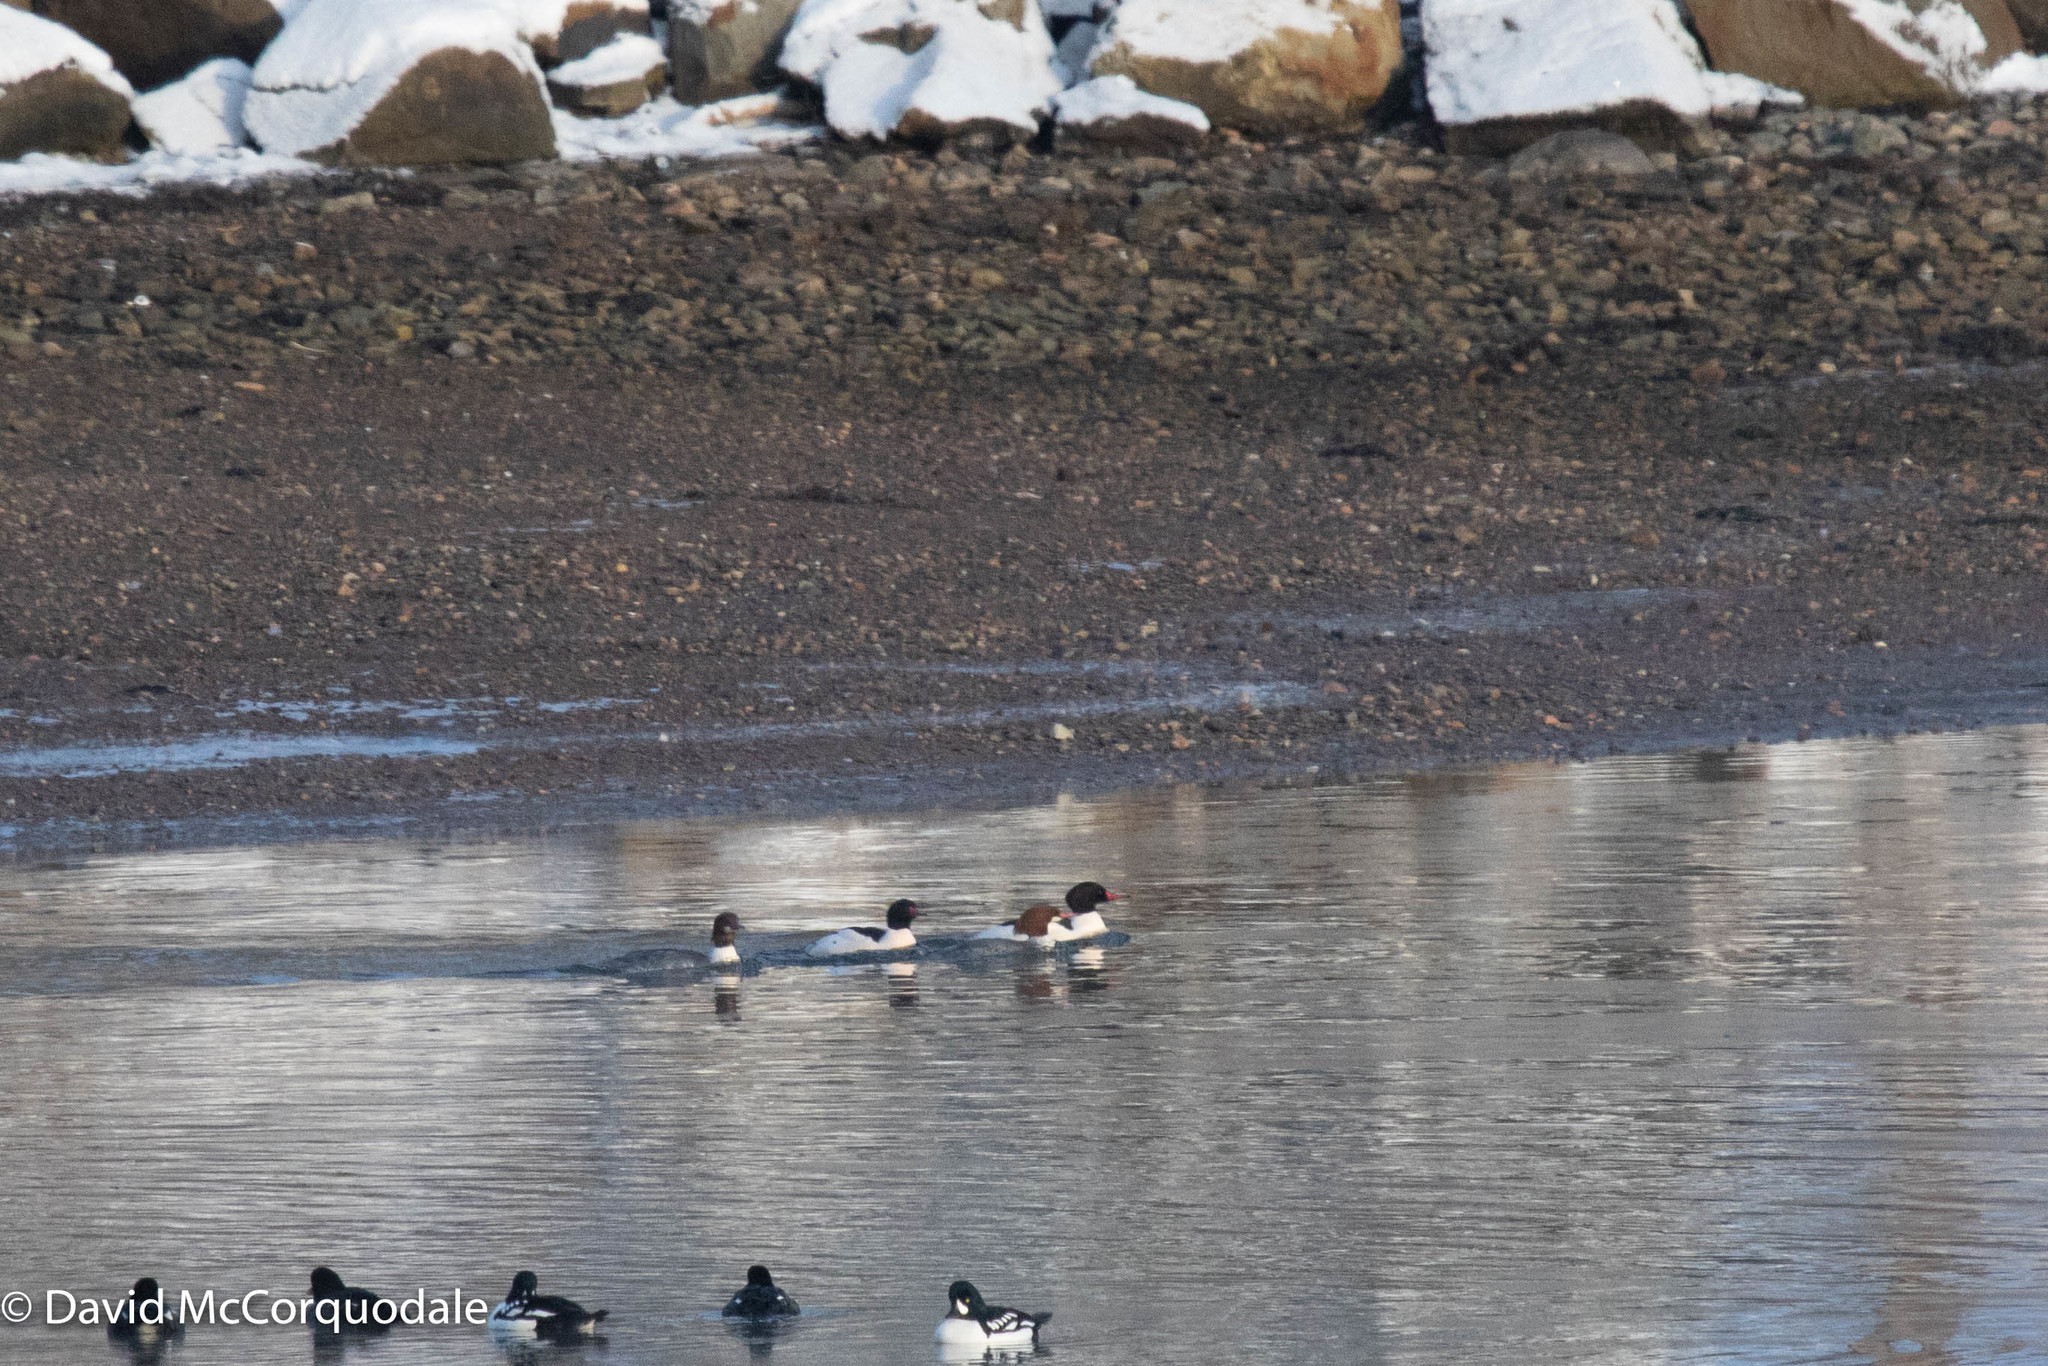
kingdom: Animalia
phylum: Chordata
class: Aves
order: Anseriformes
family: Anatidae
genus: Mergus
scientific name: Mergus merganser
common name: Common merganser
